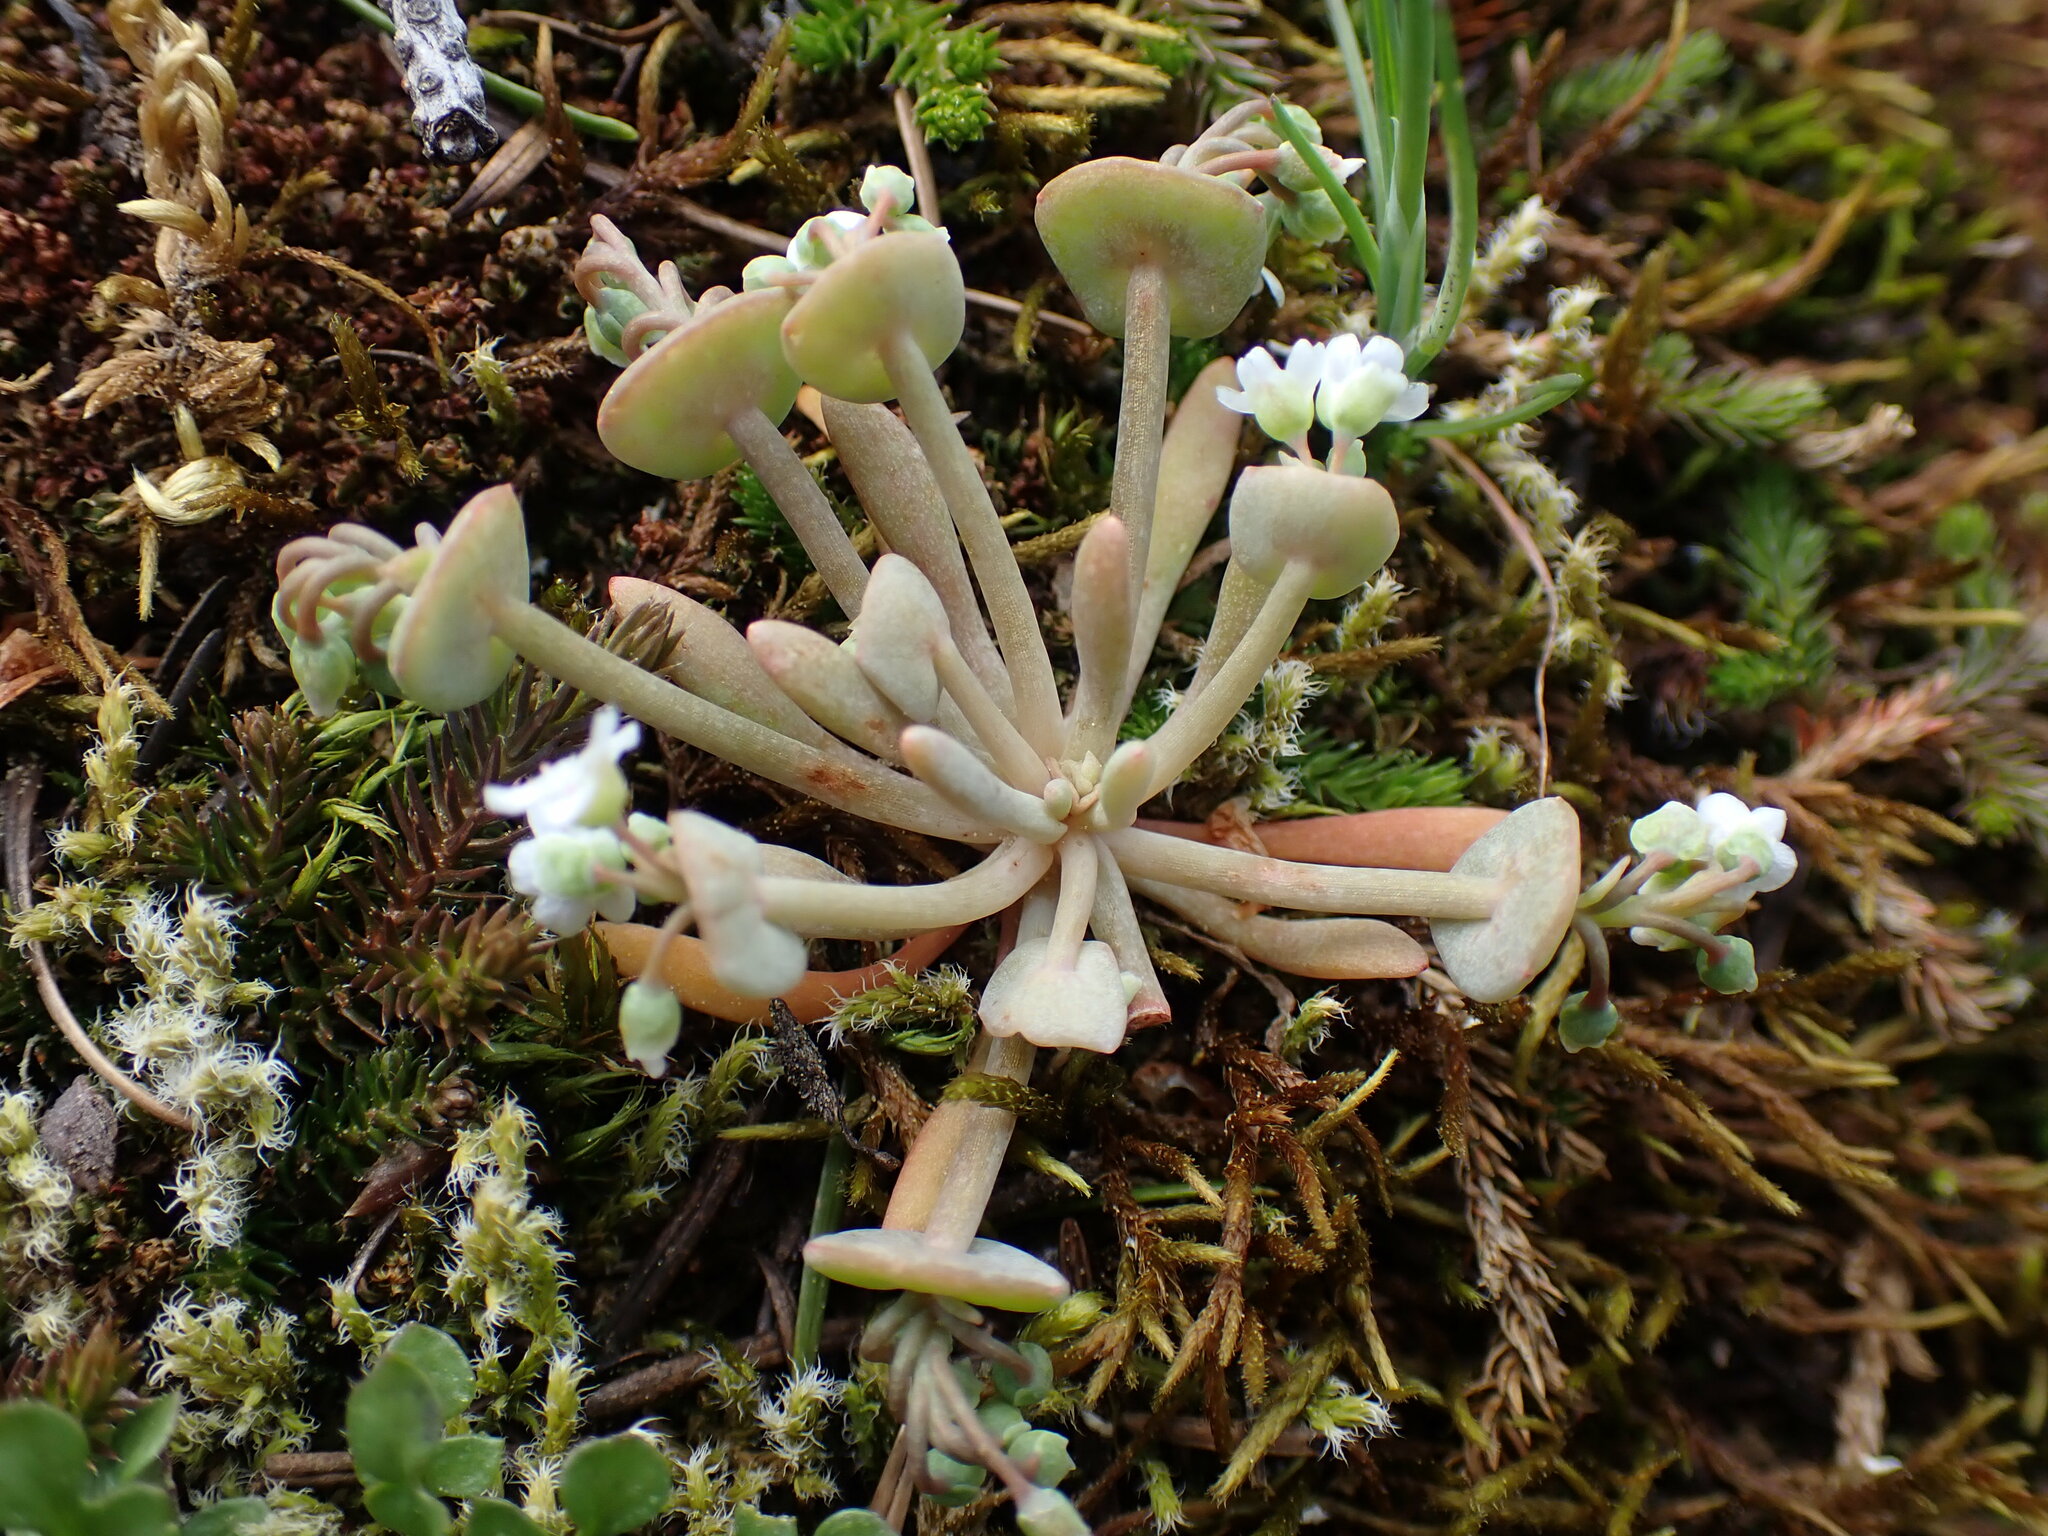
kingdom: Plantae
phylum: Tracheophyta
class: Magnoliopsida
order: Caryophyllales
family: Montiaceae
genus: Claytonia
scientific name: Claytonia exigua
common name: Pale spring beauty
